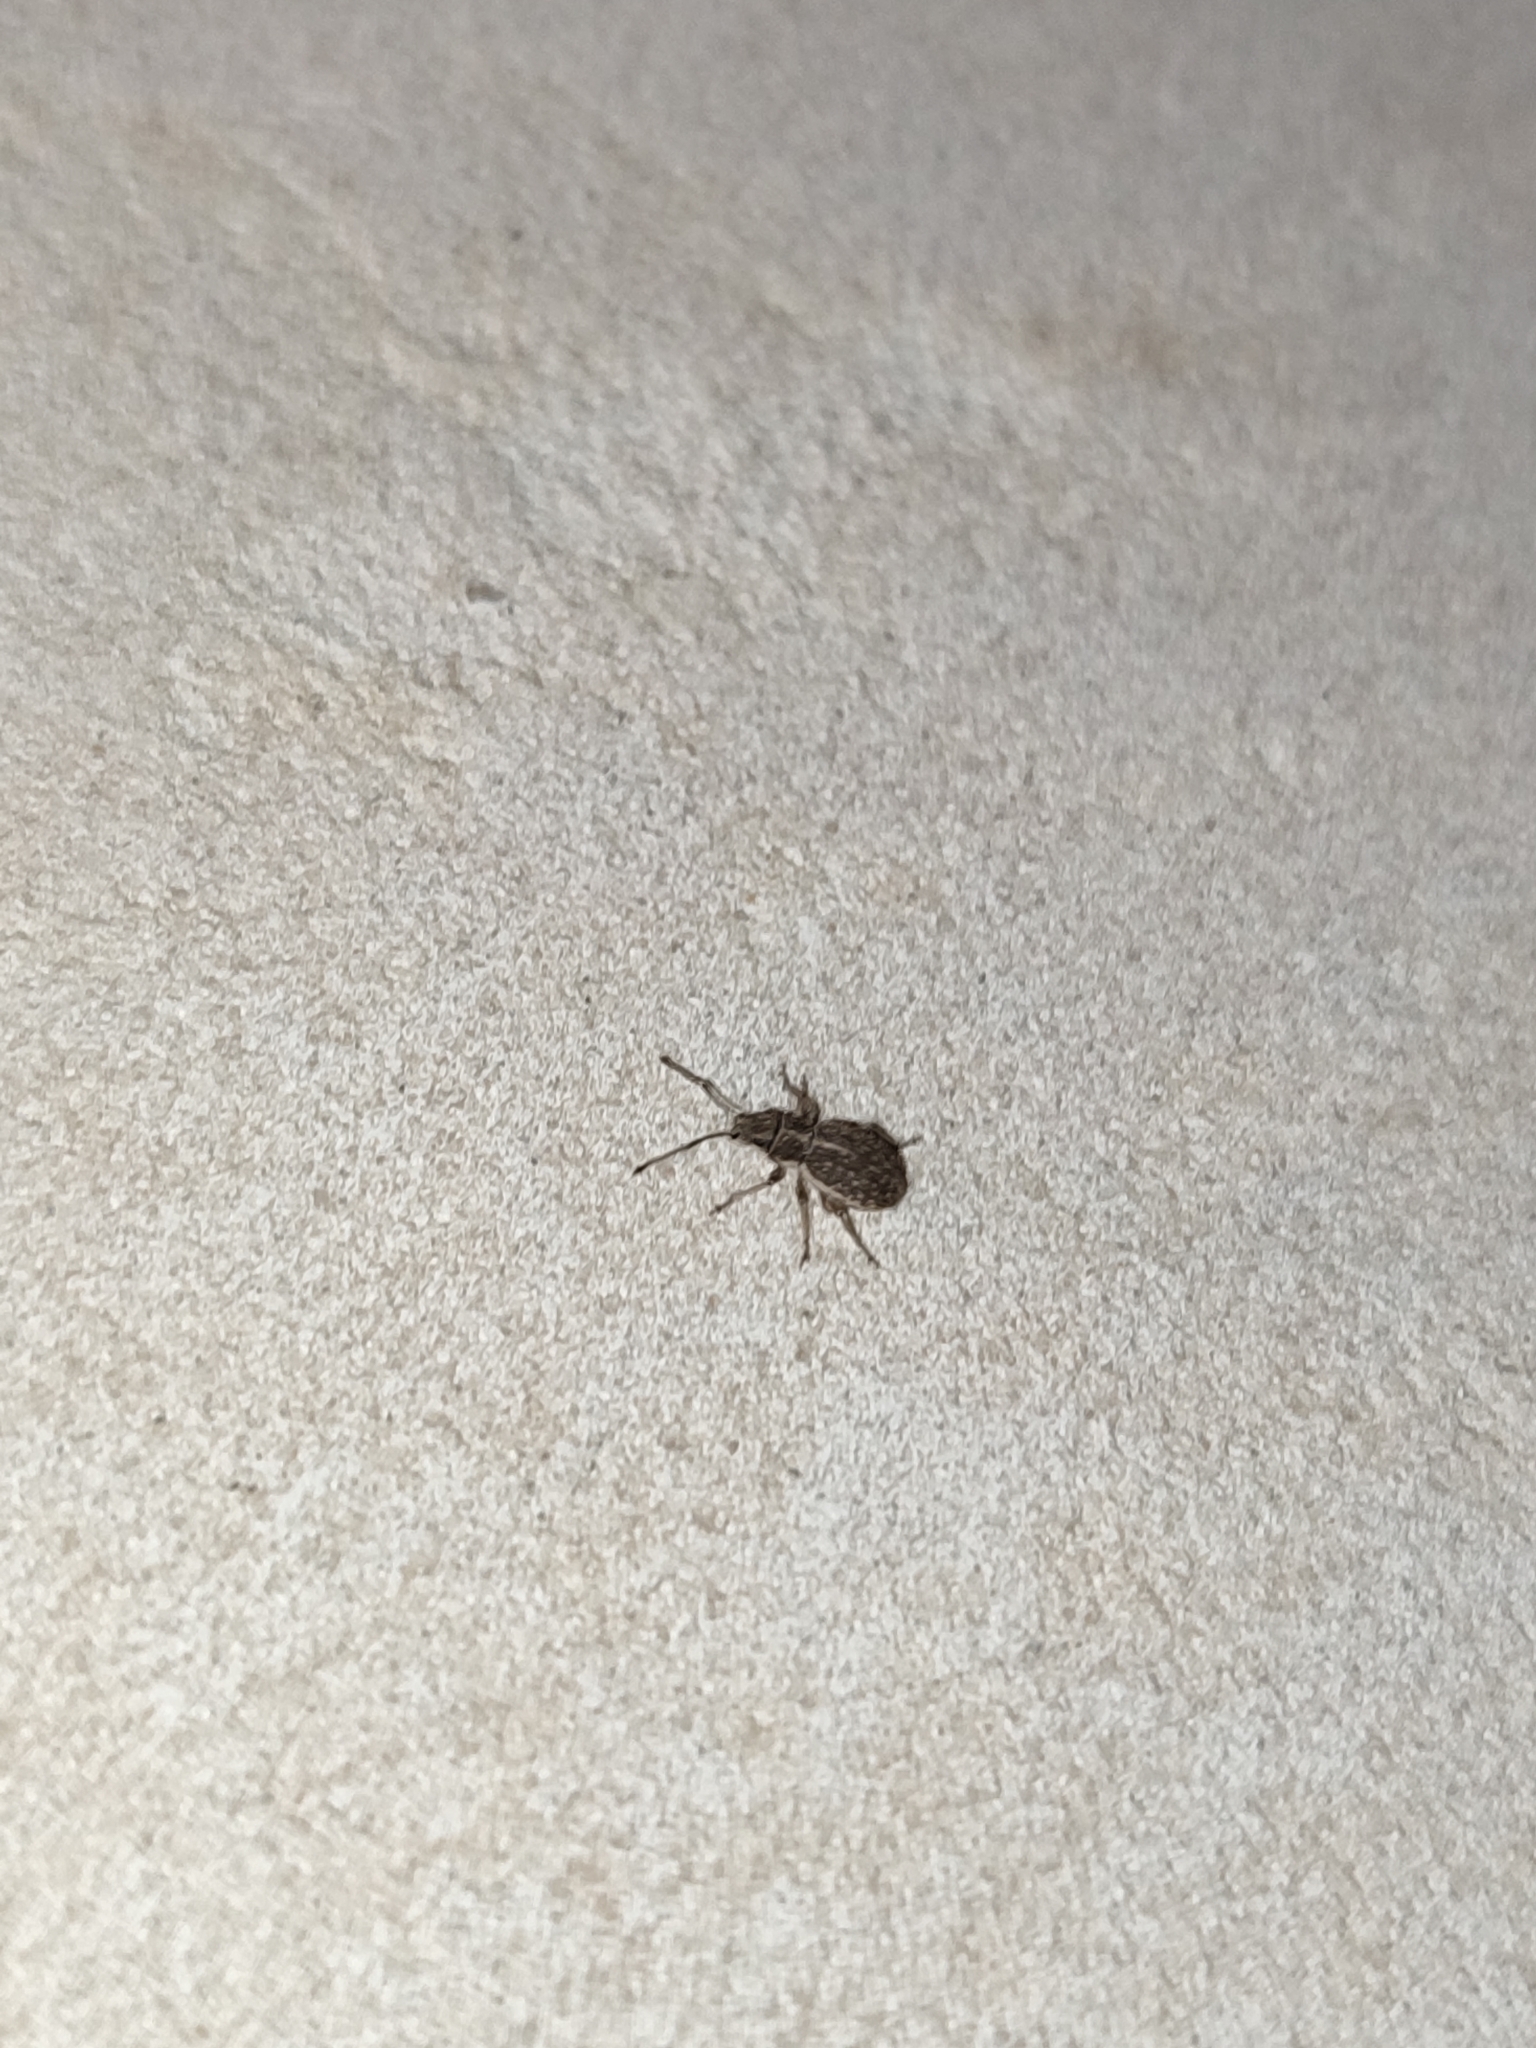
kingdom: Animalia
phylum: Arthropoda
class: Insecta
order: Coleoptera
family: Curculionidae
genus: Ptochus
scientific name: Ptochus porcellus
